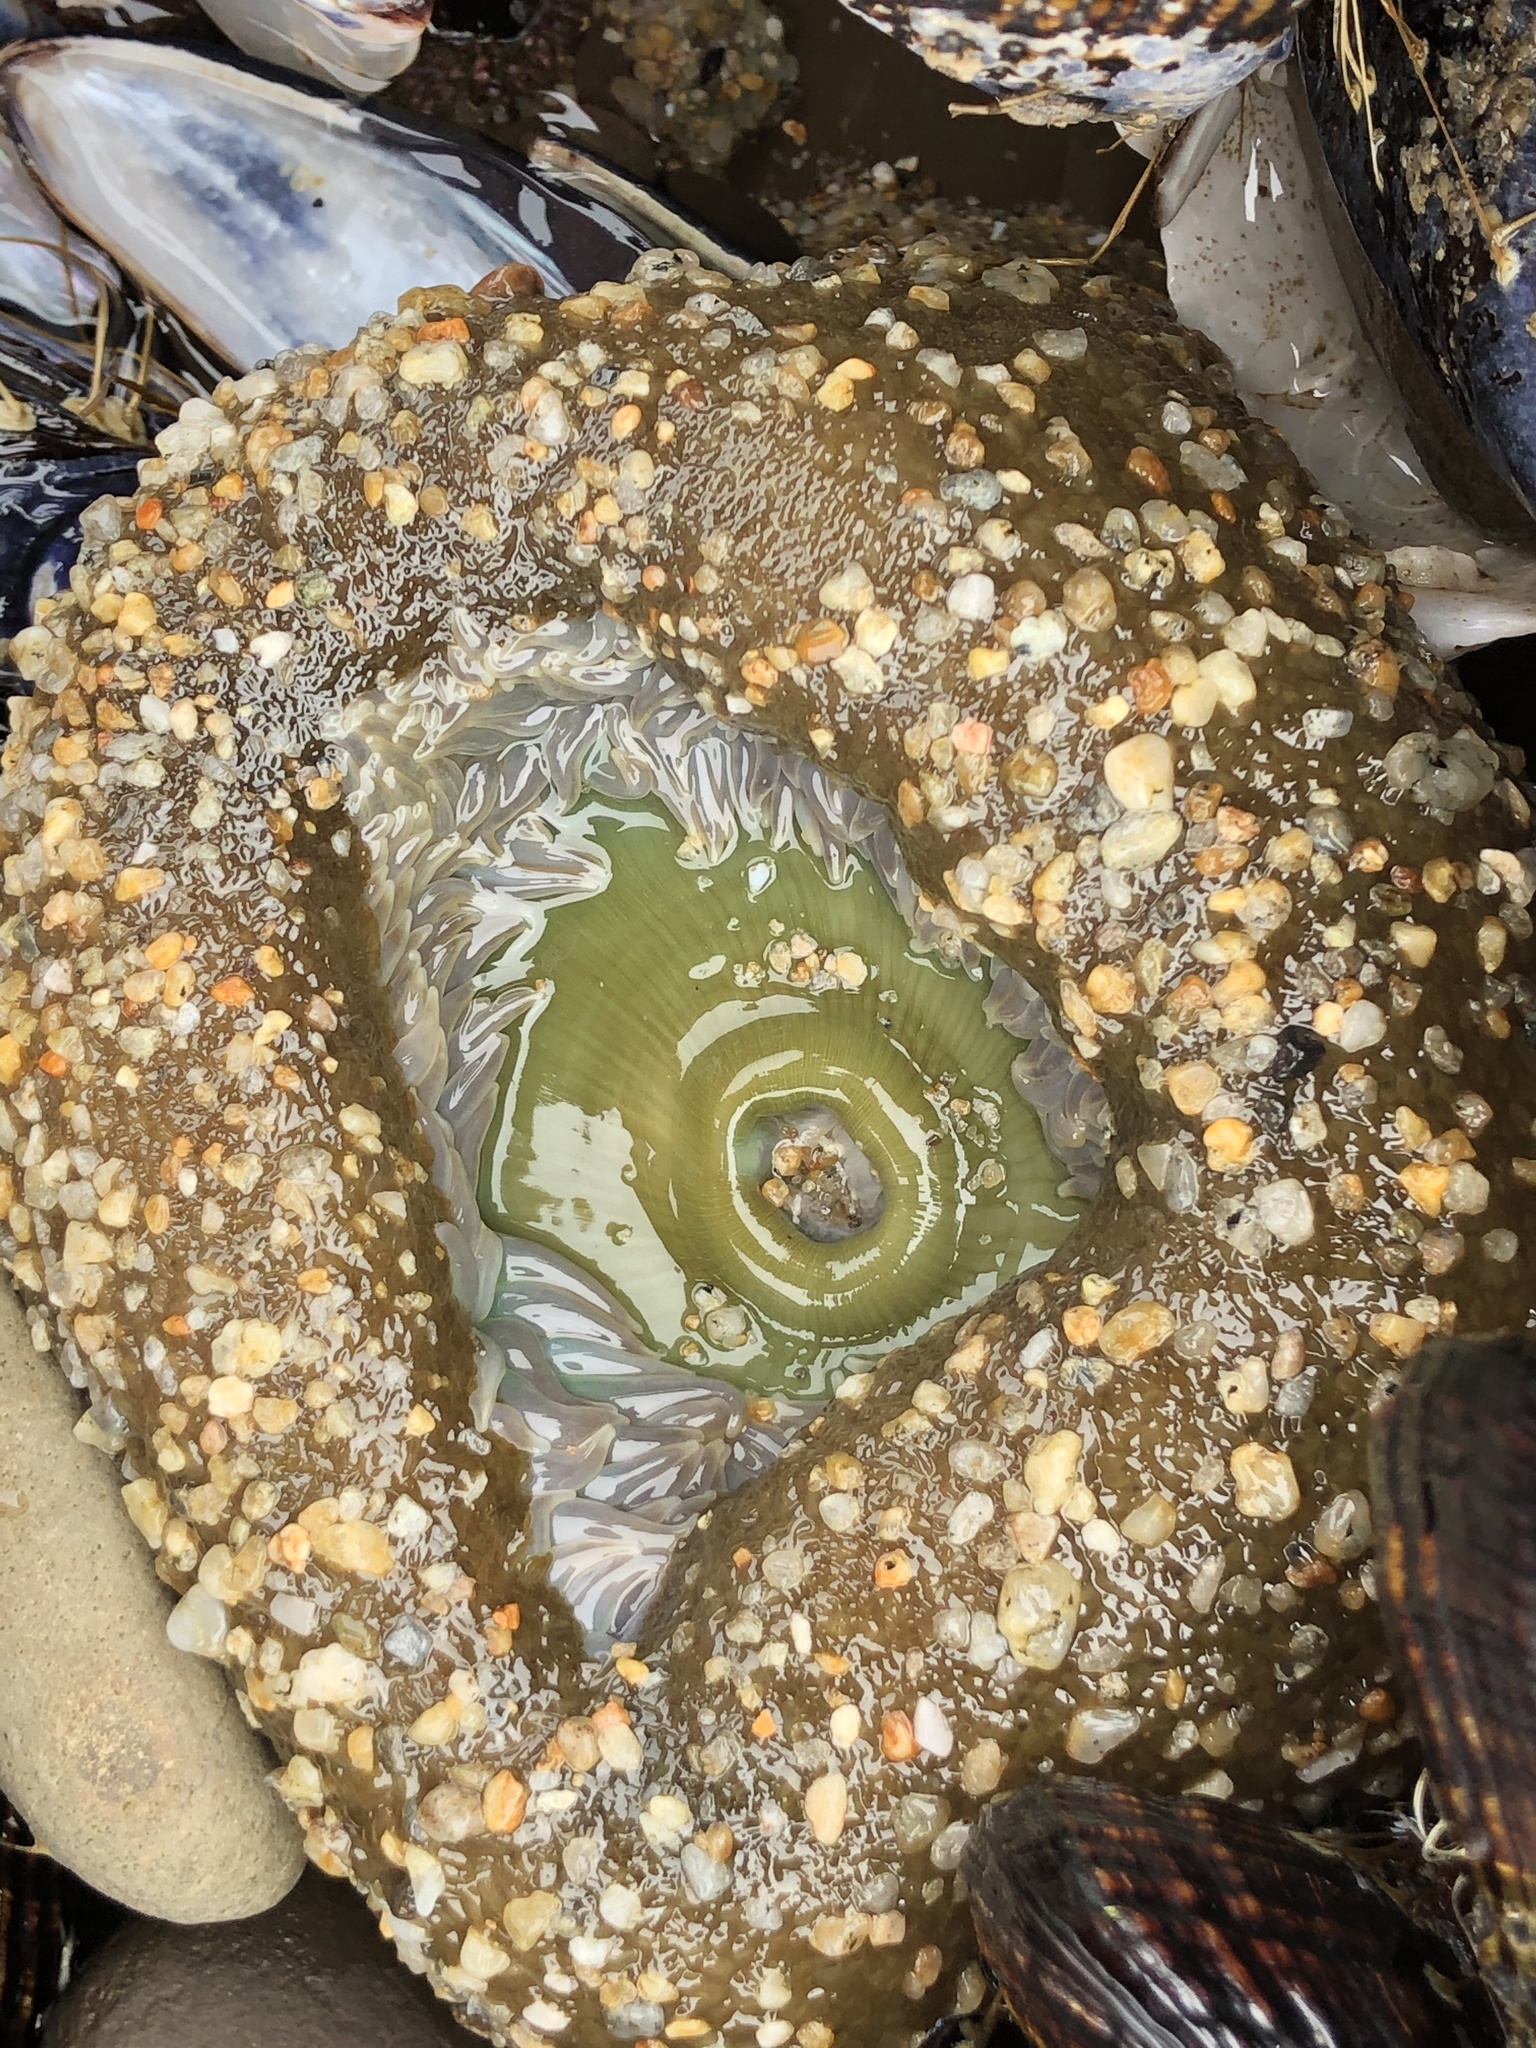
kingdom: Animalia
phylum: Cnidaria
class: Anthozoa
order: Actiniaria
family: Actiniidae
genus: Anthopleura
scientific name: Anthopleura xanthogrammica
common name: Giant green anemone
